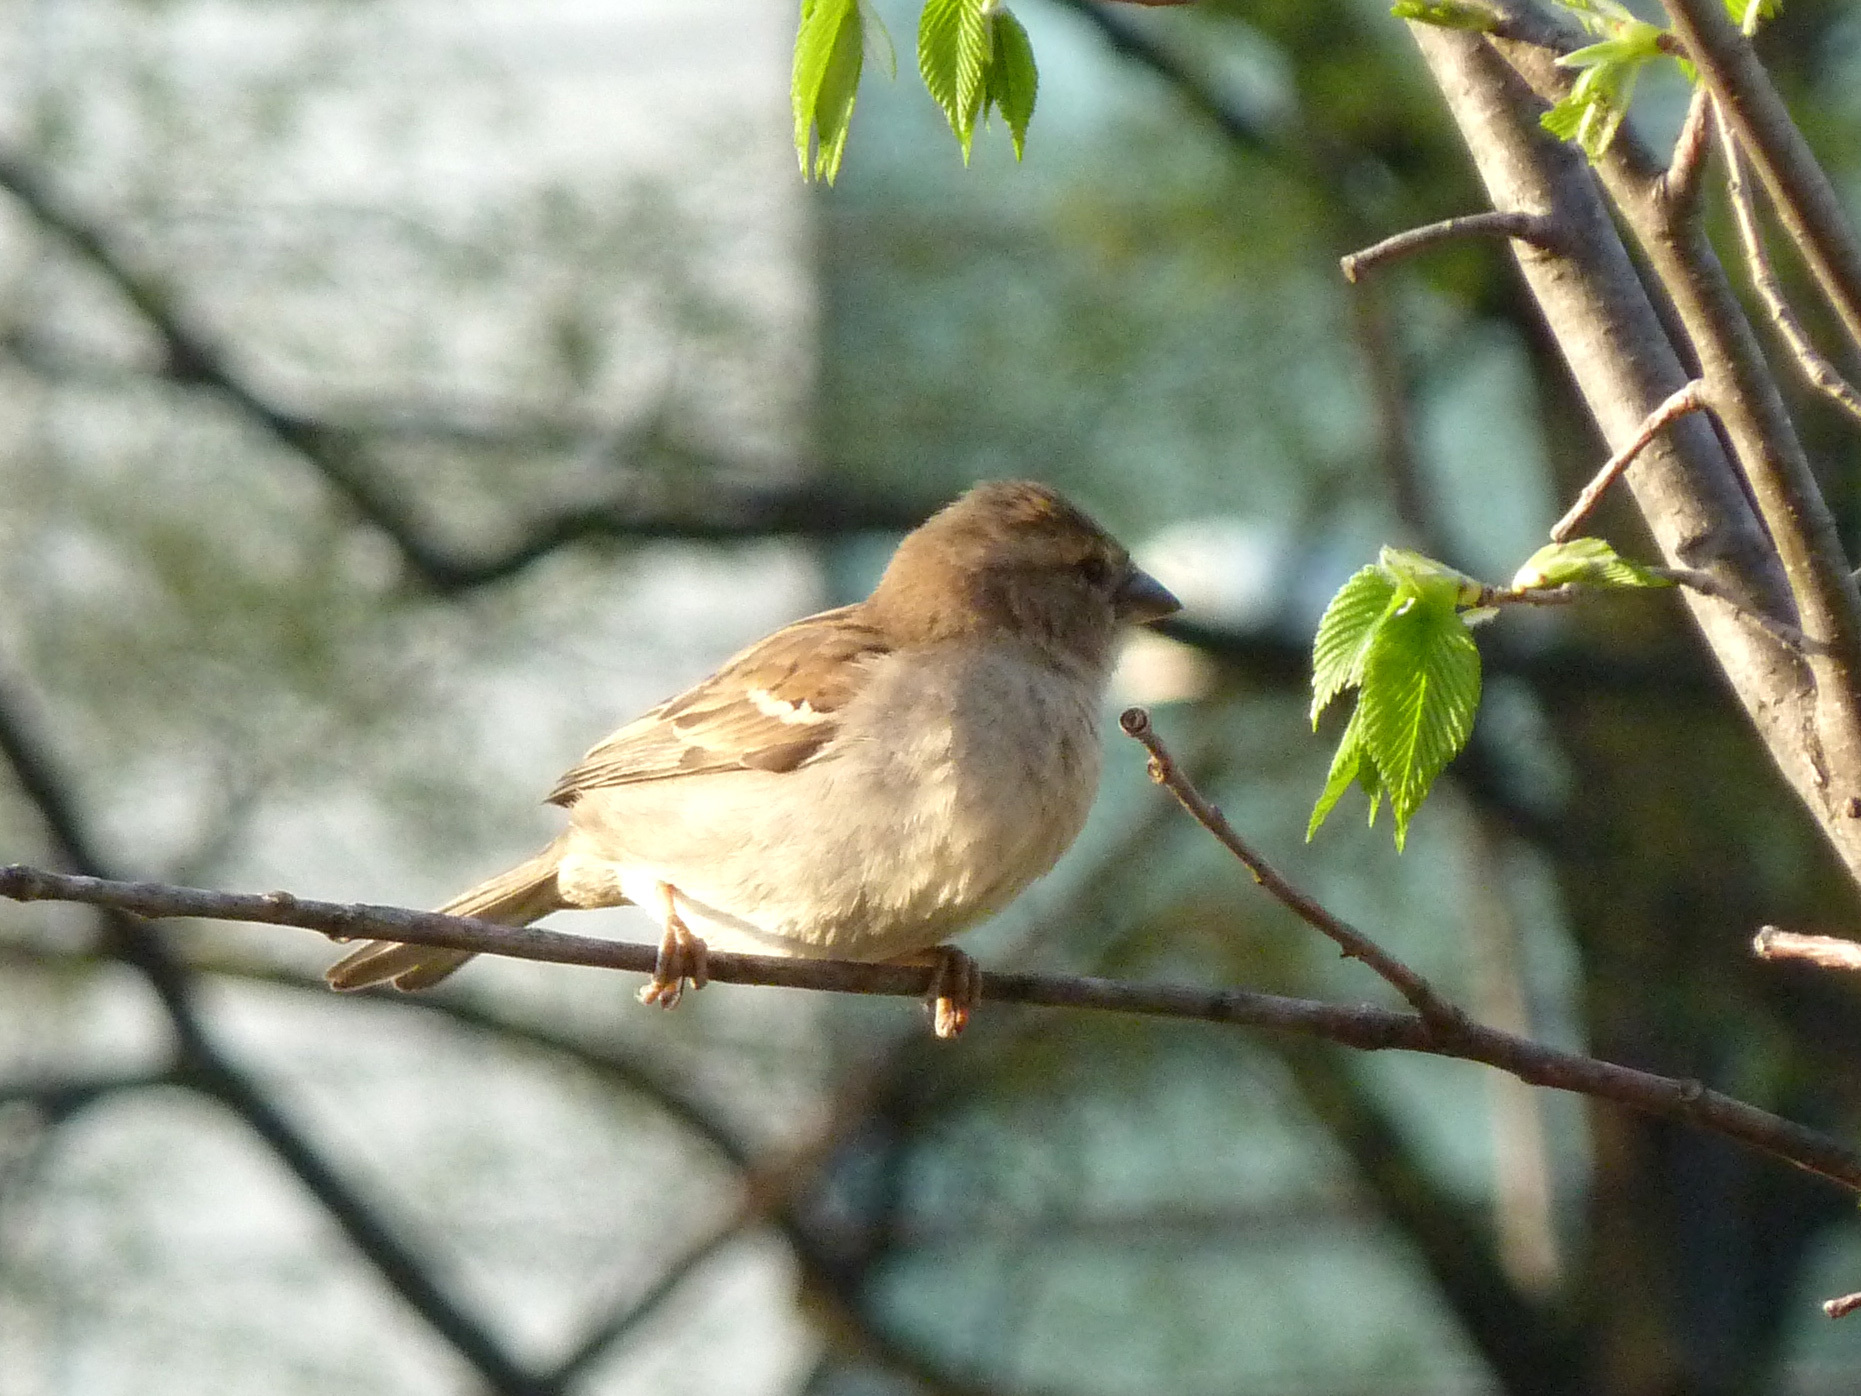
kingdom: Animalia
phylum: Chordata
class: Aves
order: Passeriformes
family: Passeridae
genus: Passer
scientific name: Passer domesticus
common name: House sparrow
